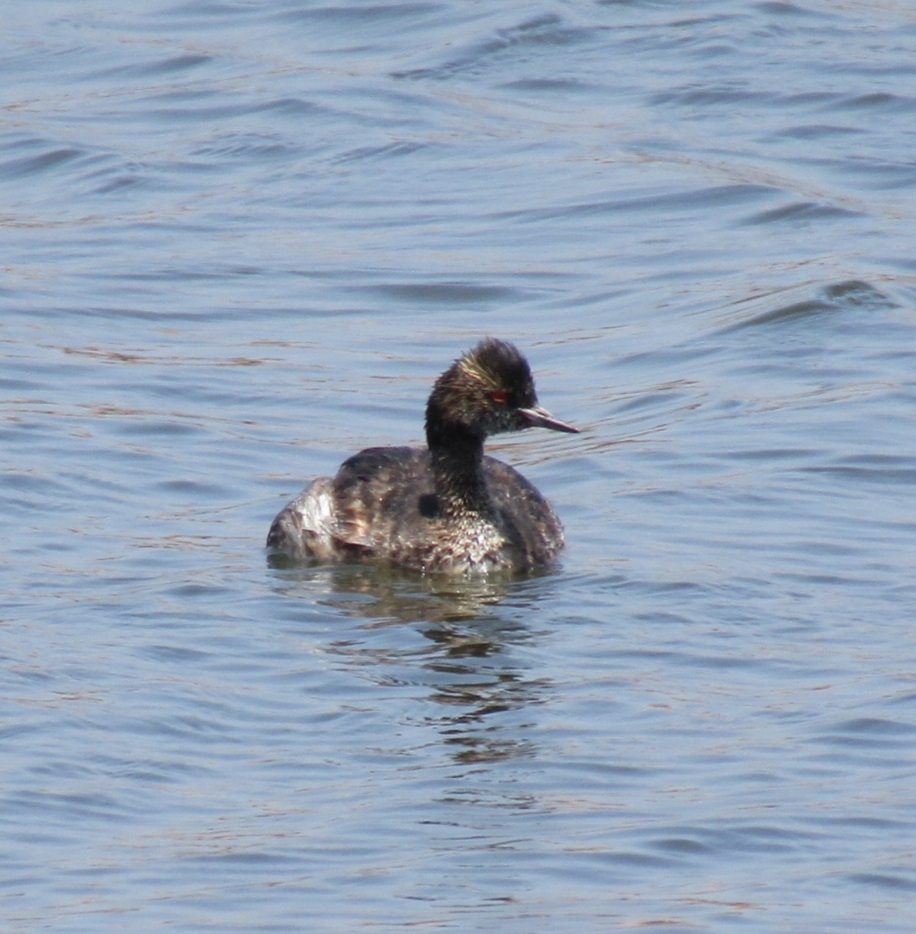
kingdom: Animalia
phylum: Chordata
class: Aves
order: Podicipediformes
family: Podicipedidae
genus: Podiceps
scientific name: Podiceps nigricollis
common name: Black-necked grebe
